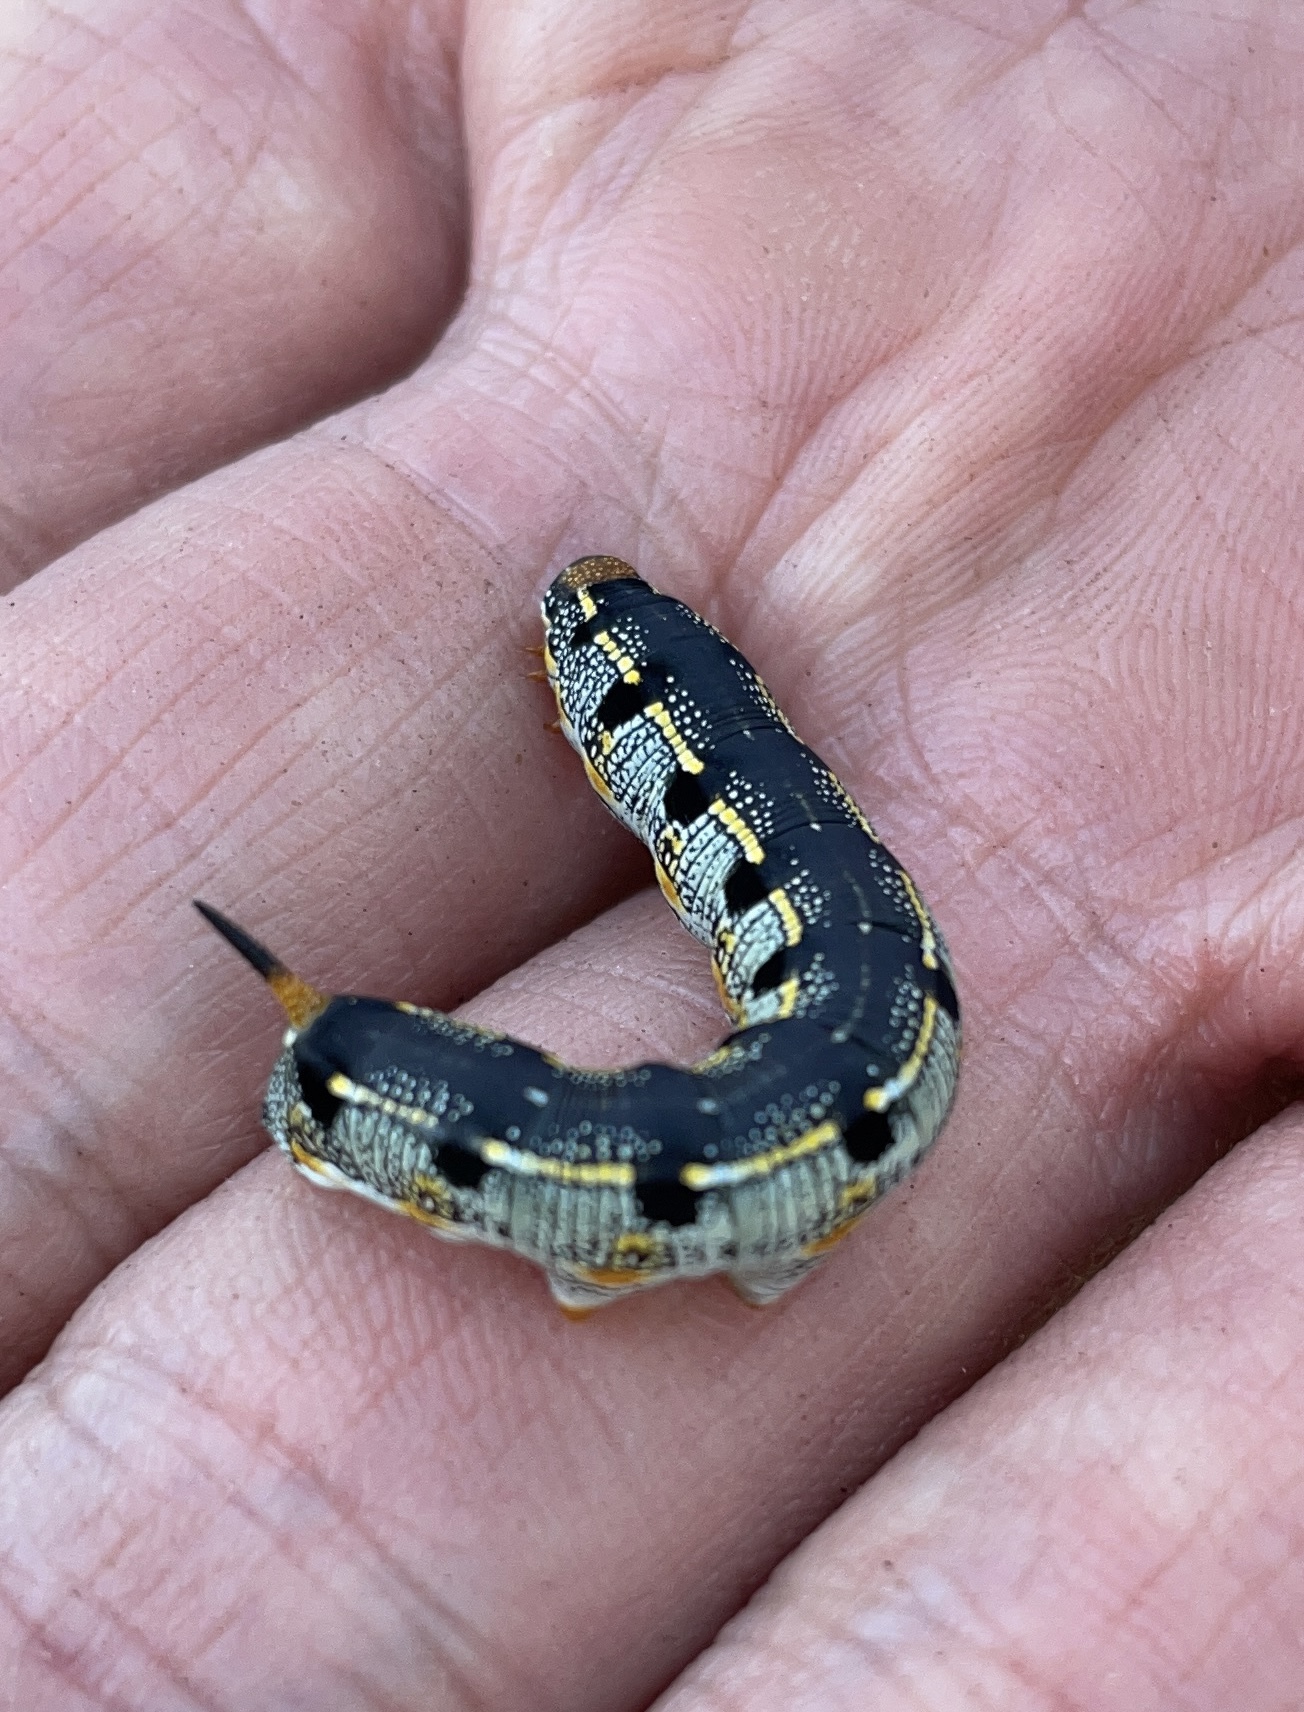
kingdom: Animalia
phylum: Arthropoda
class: Insecta
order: Lepidoptera
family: Sphingidae
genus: Hyles
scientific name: Hyles lineata
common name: White-lined sphinx
